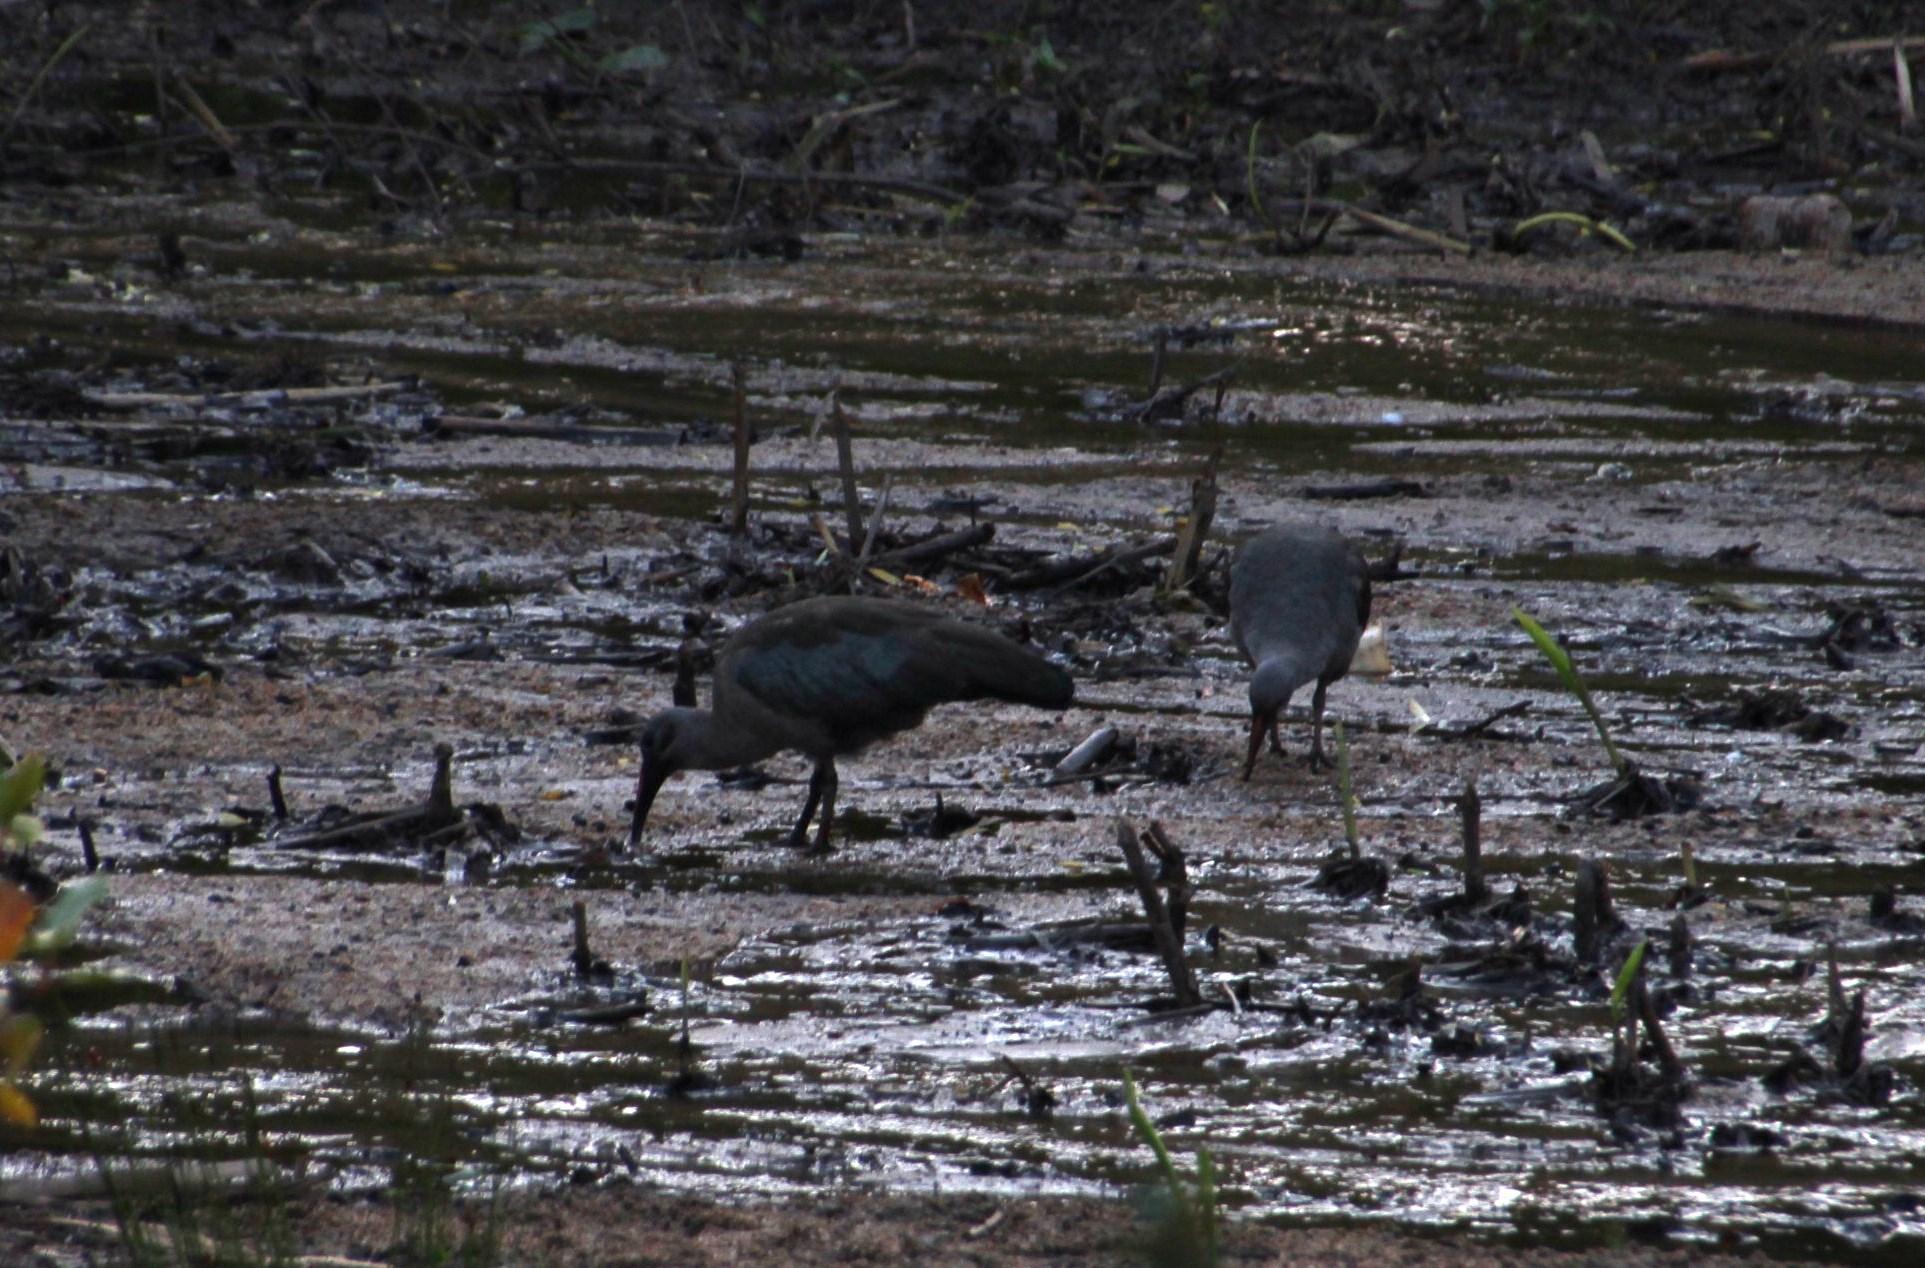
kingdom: Animalia
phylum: Chordata
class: Aves
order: Pelecaniformes
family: Threskiornithidae
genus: Bostrychia
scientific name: Bostrychia hagedash
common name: Hadada ibis
